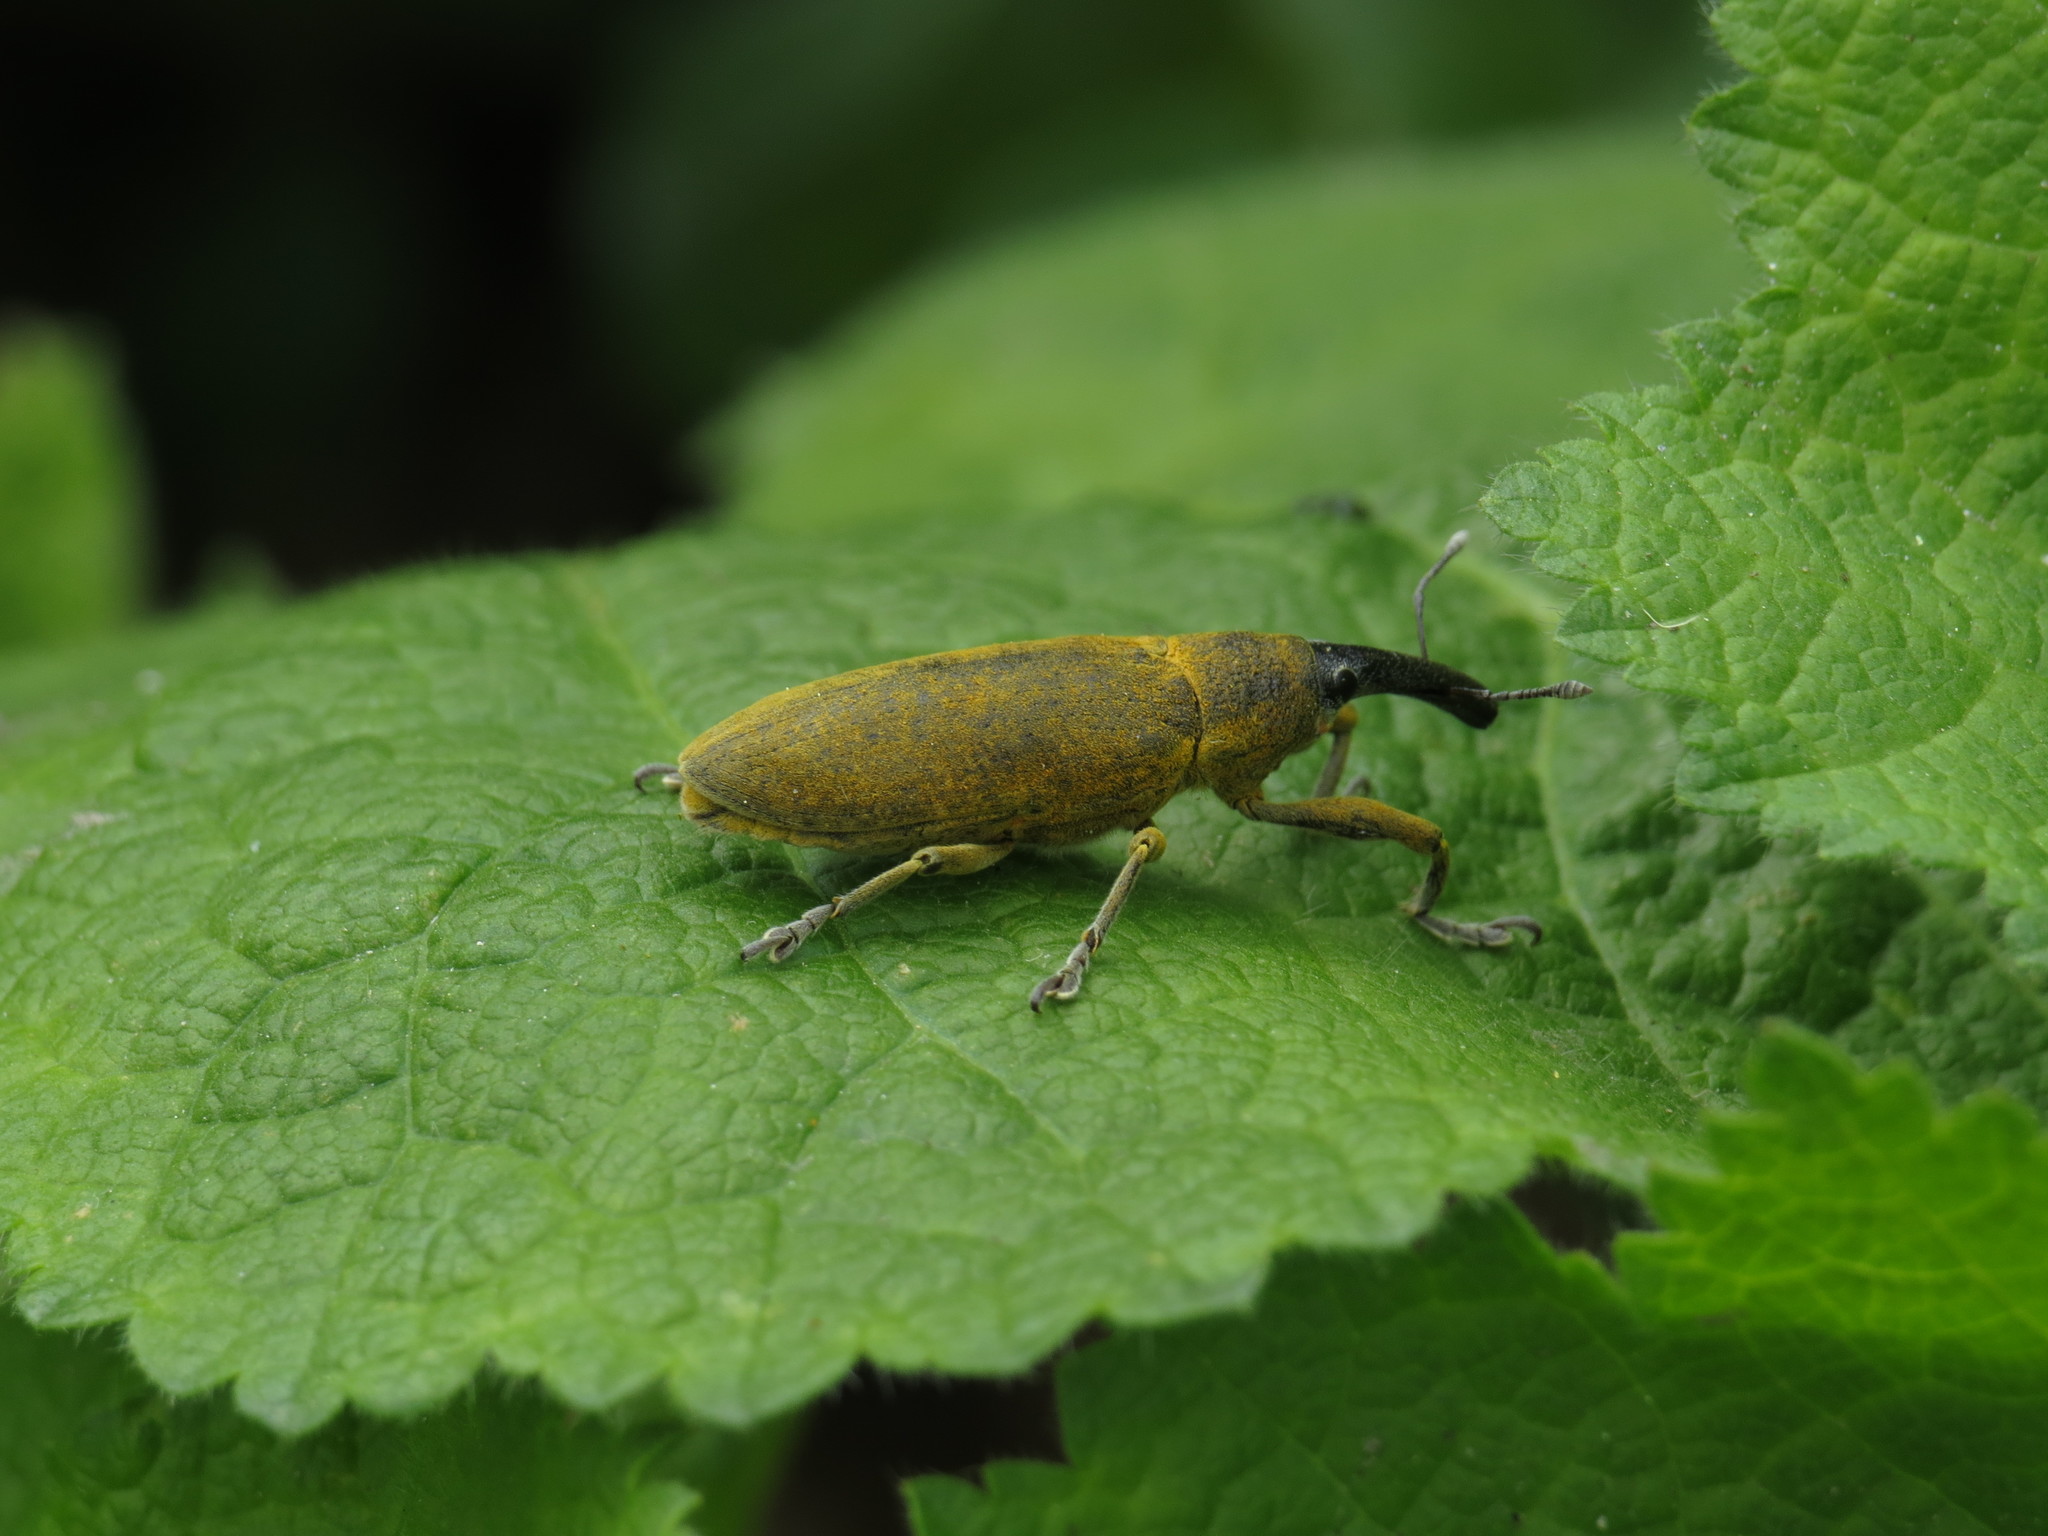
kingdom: Animalia
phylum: Arthropoda
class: Insecta
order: Coleoptera
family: Curculionidae
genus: Lixus
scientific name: Lixus pulverulentus
